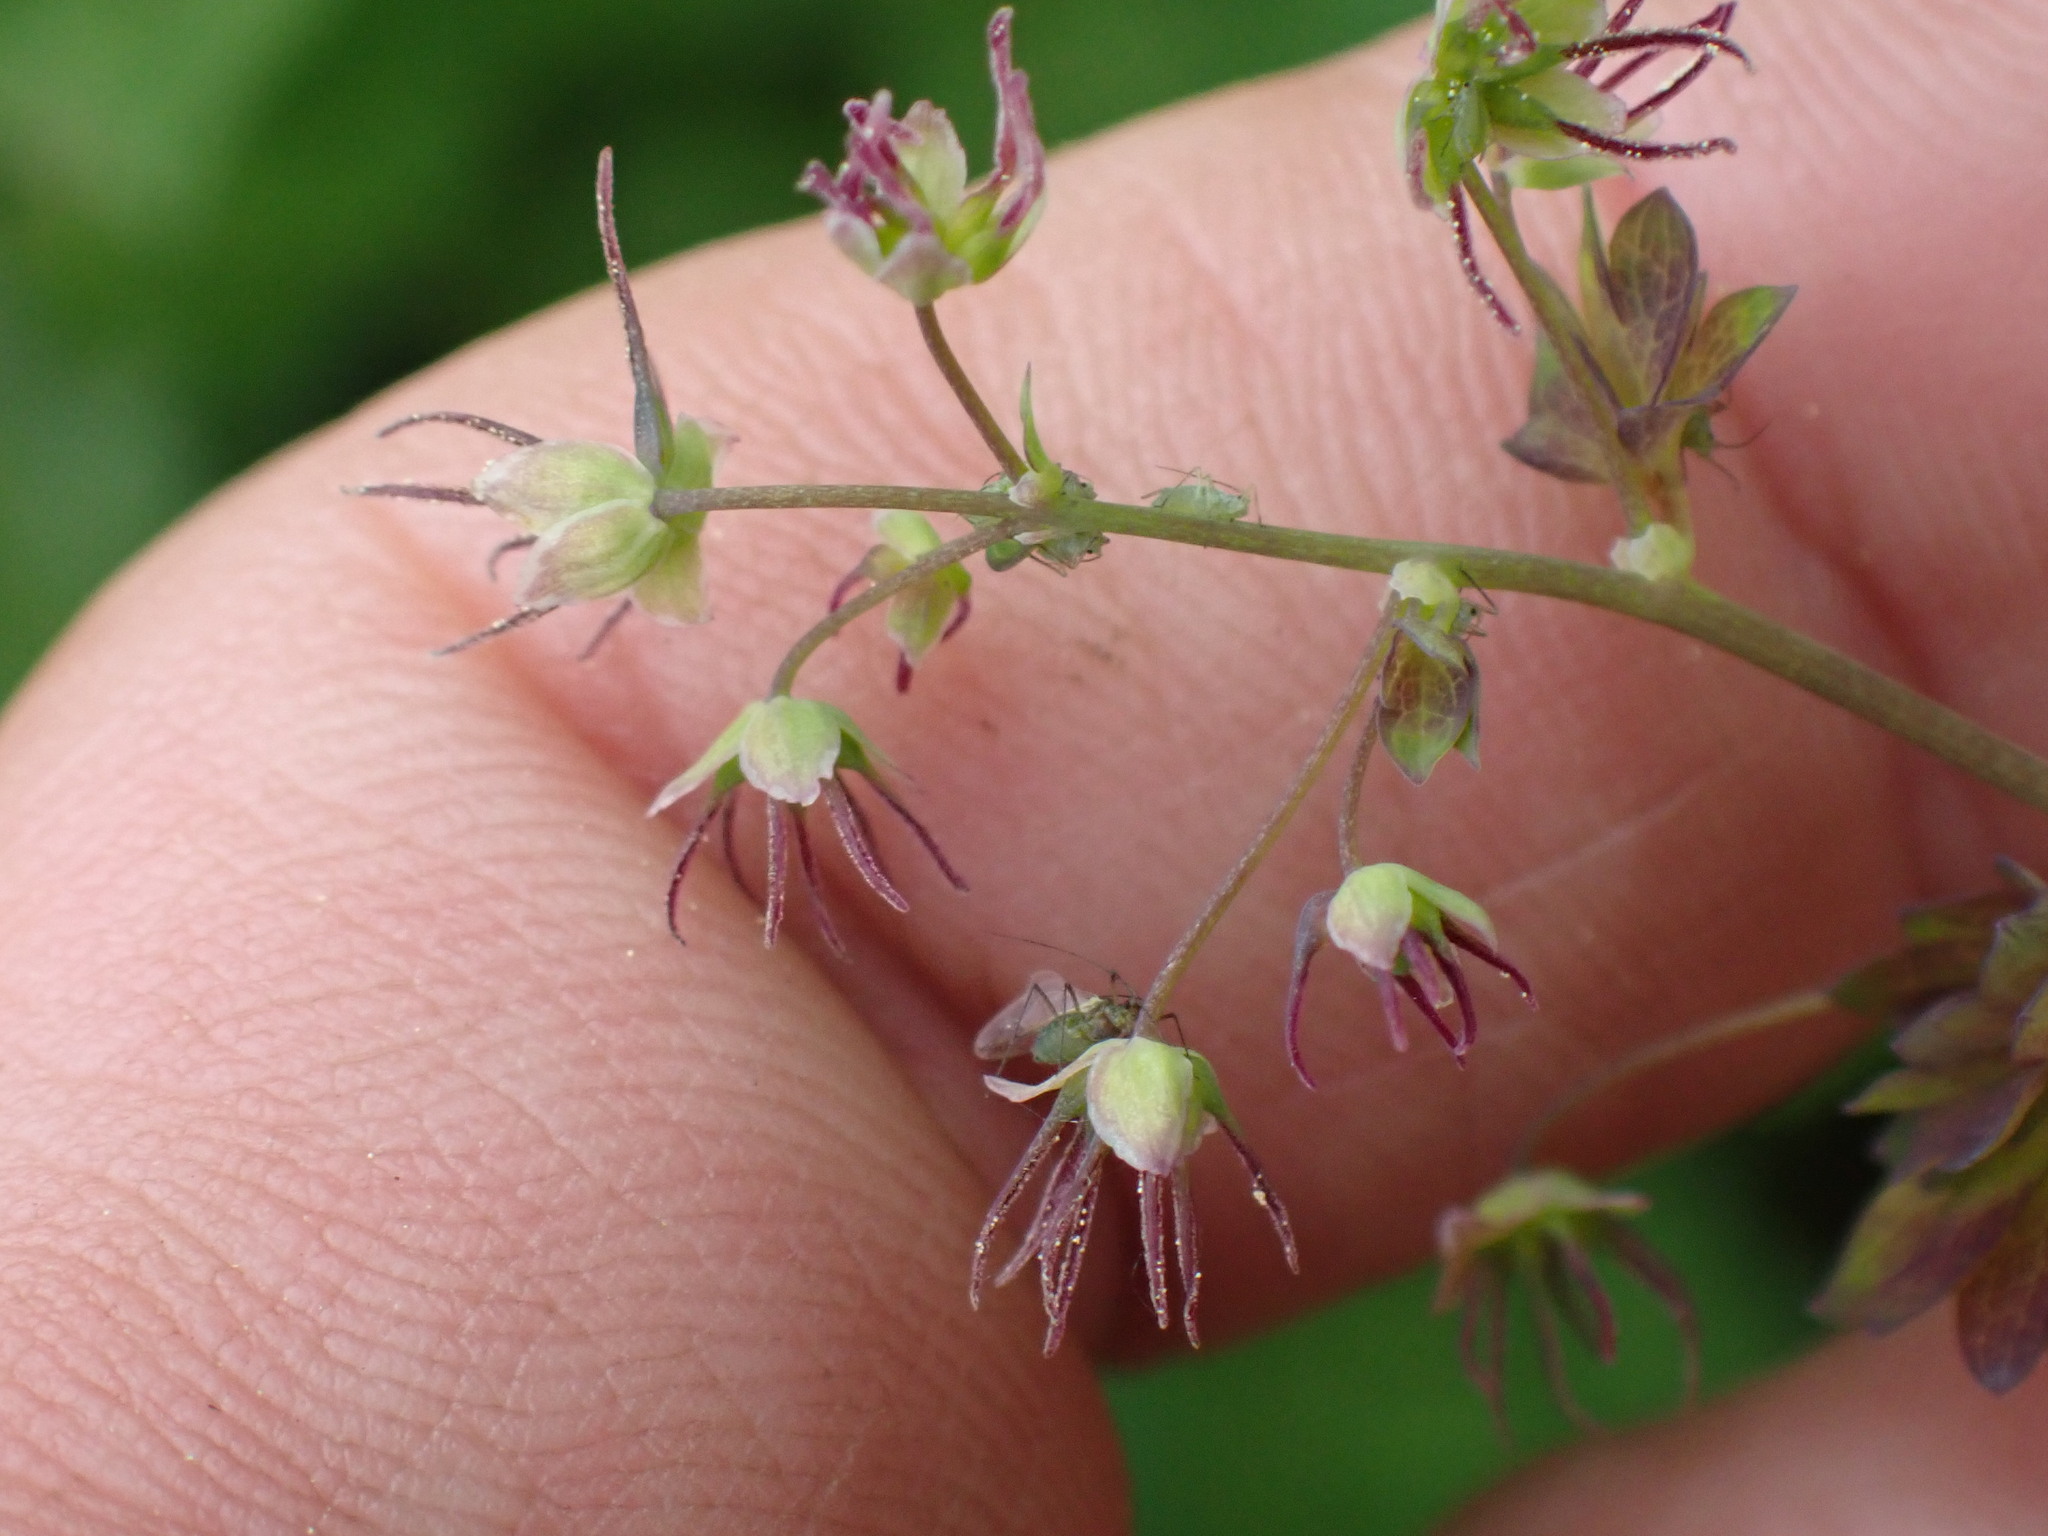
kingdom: Plantae
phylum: Tracheophyta
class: Magnoliopsida
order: Ranunculales
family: Ranunculaceae
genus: Thalictrum
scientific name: Thalictrum occidentale
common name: Western meadow-rue
